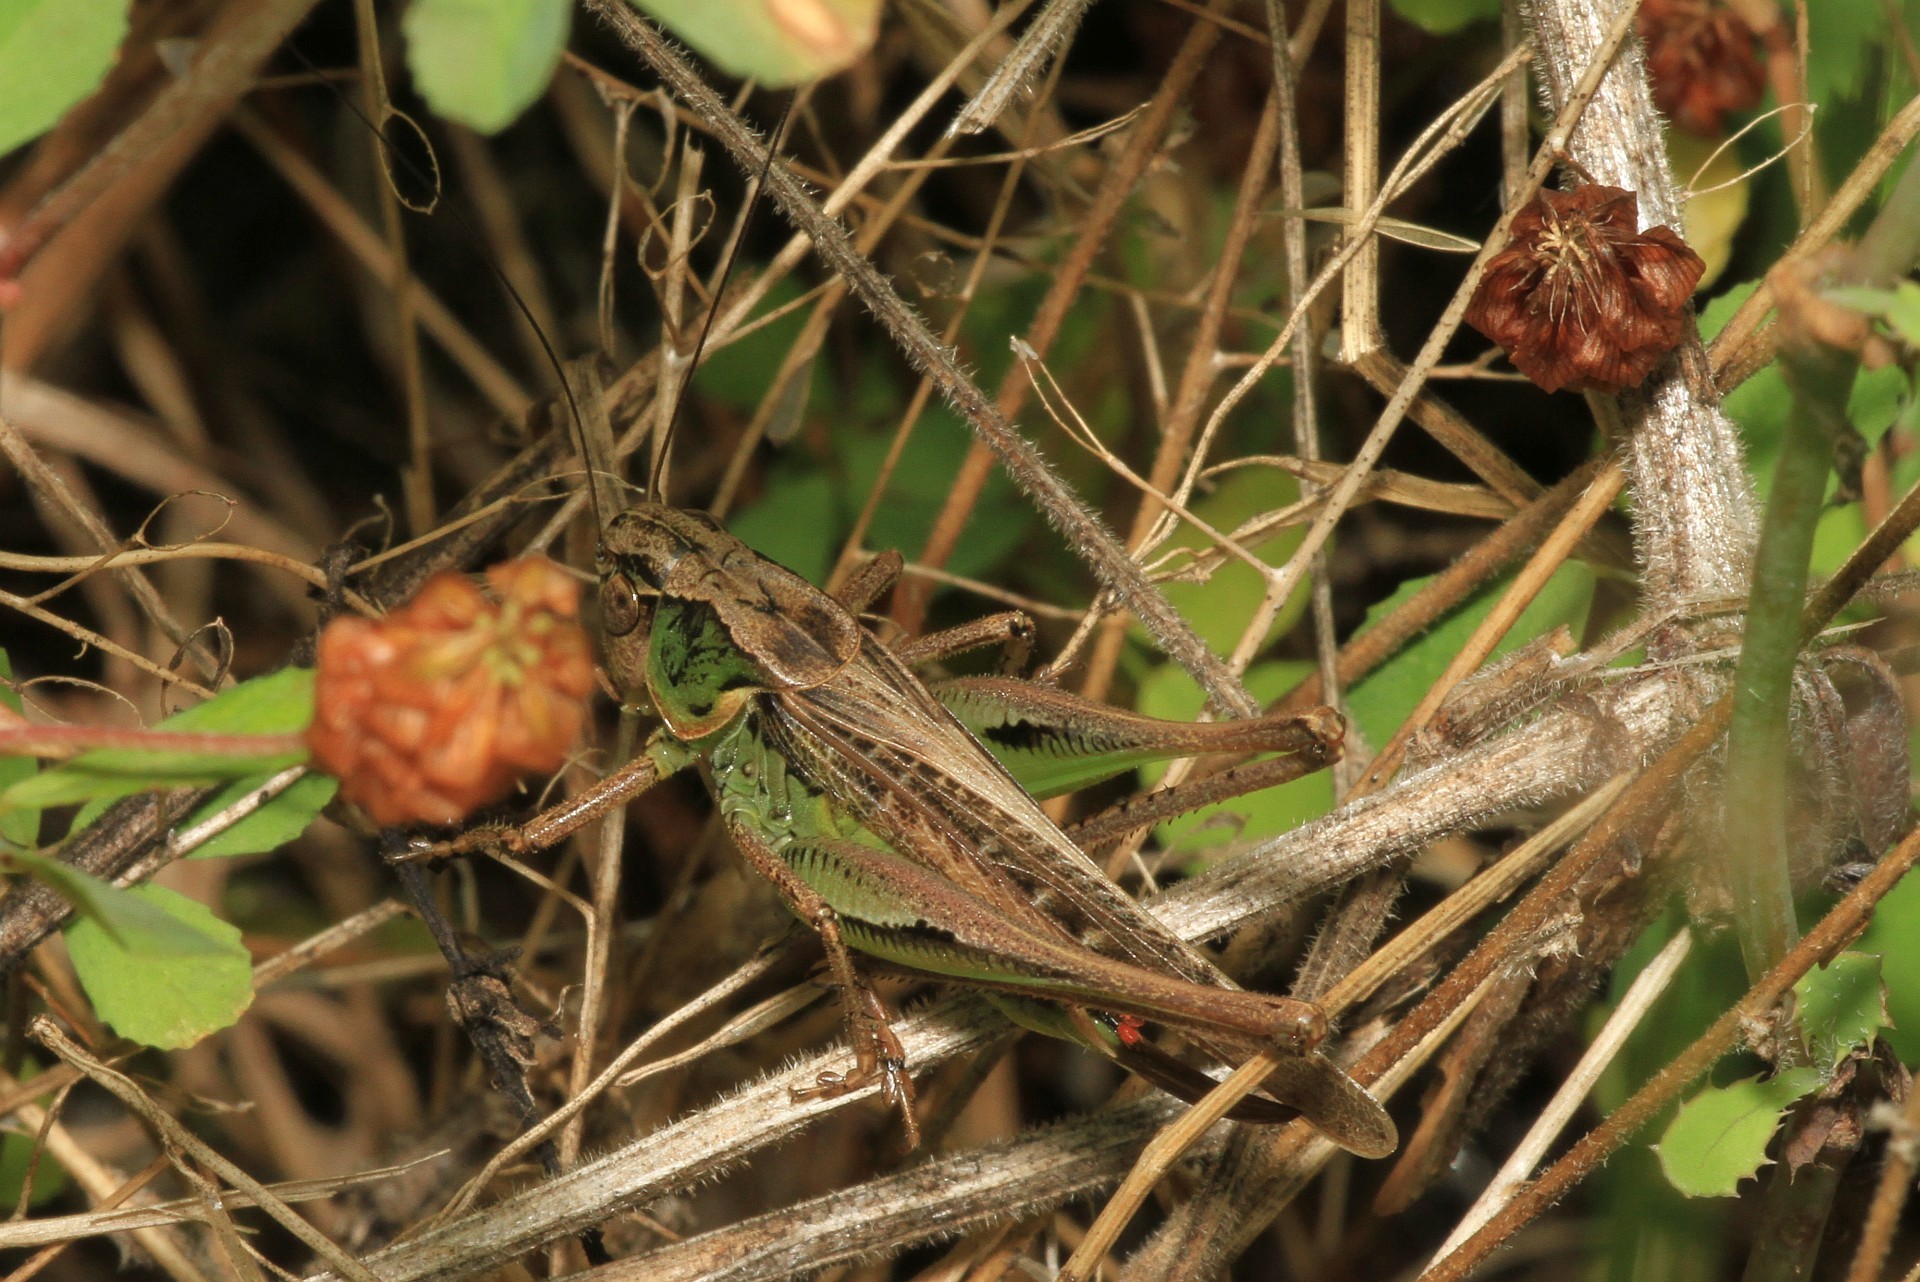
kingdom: Animalia
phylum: Arthropoda
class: Insecta
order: Orthoptera
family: Tettigoniidae
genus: Platycleis
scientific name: Platycleis albopunctata
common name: Grey bush-cricket
